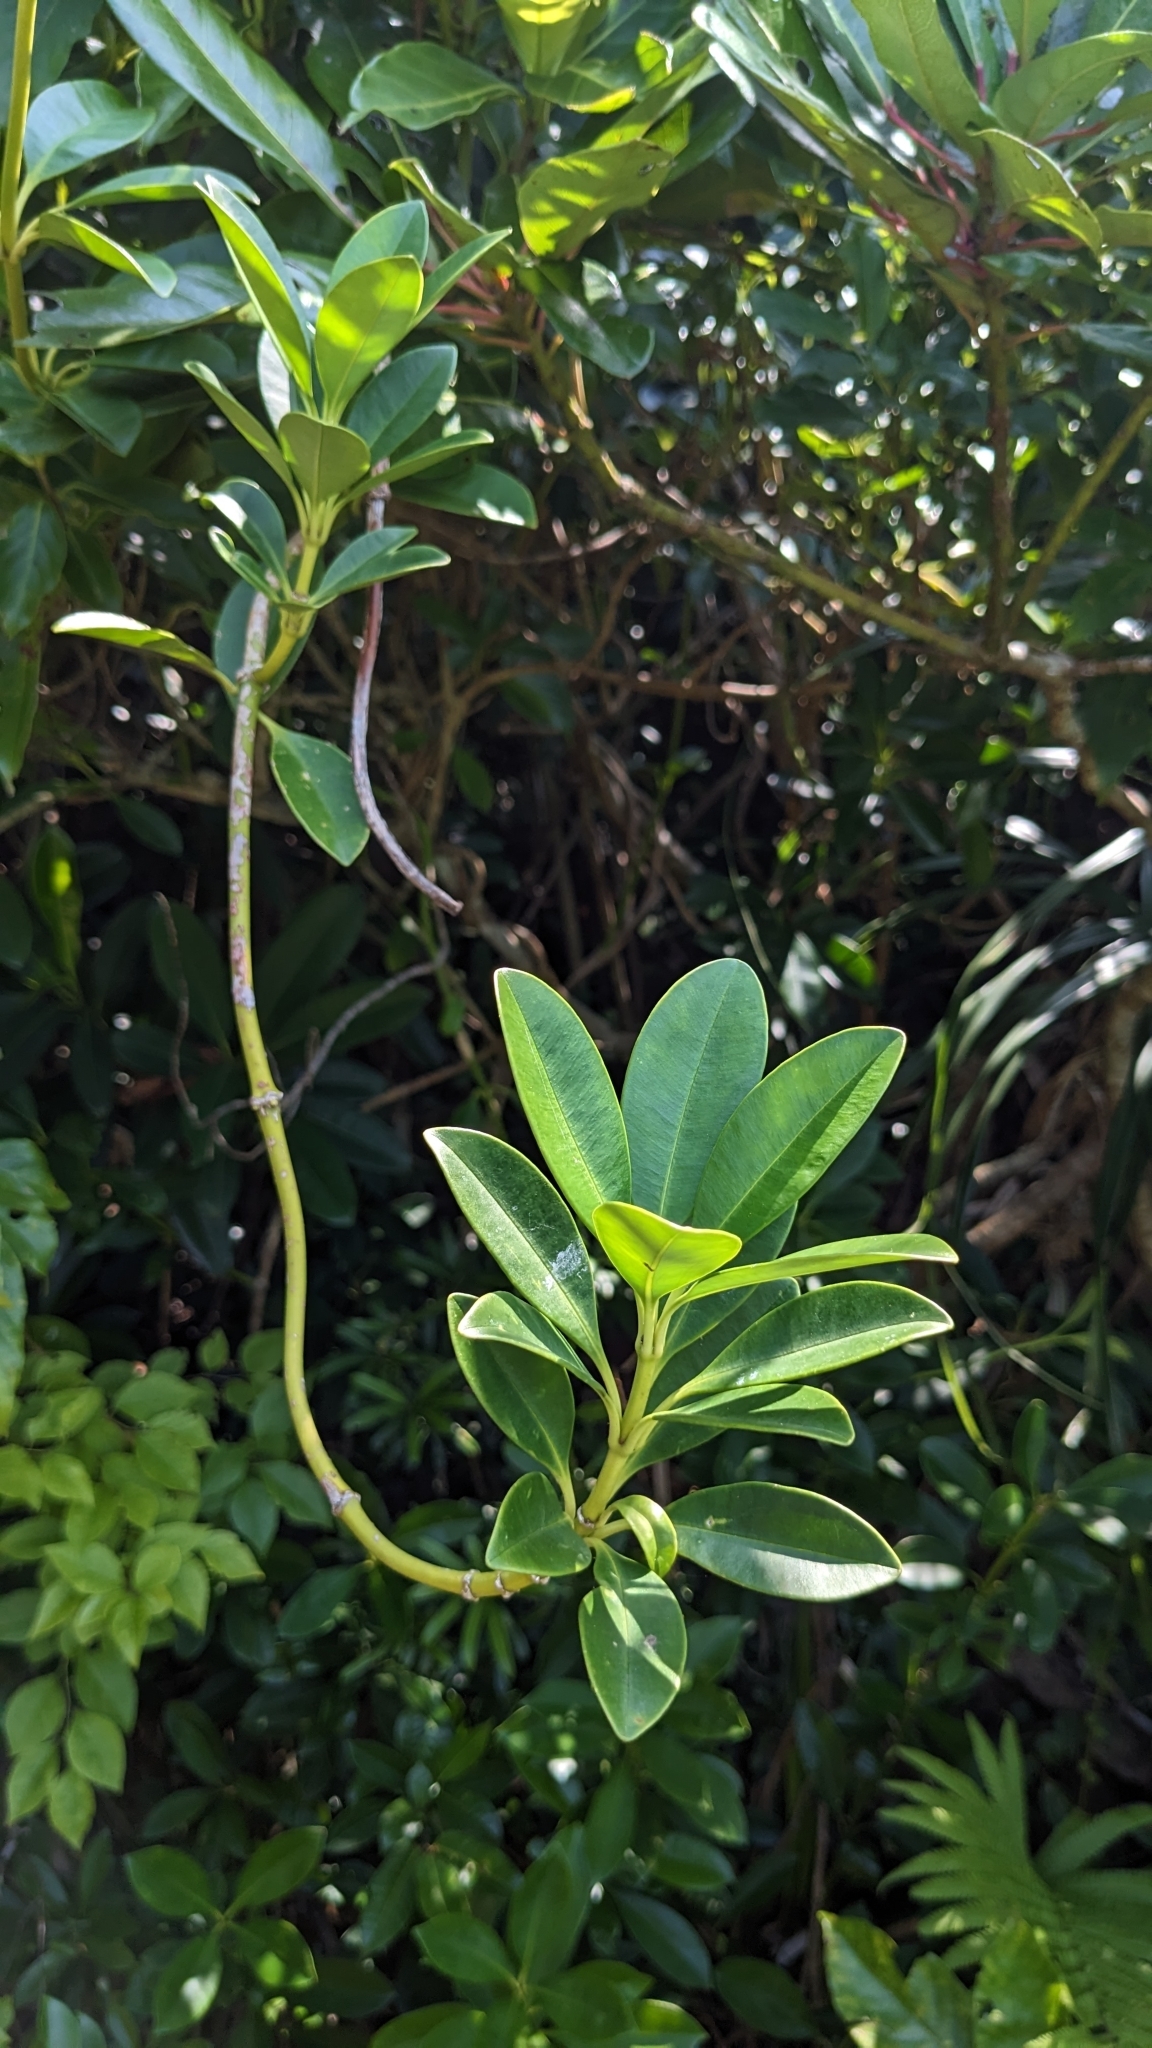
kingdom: Plantae
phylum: Tracheophyta
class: Magnoliopsida
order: Gentianales
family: Apocynaceae
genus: Alyxia
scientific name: Alyxia monticola
